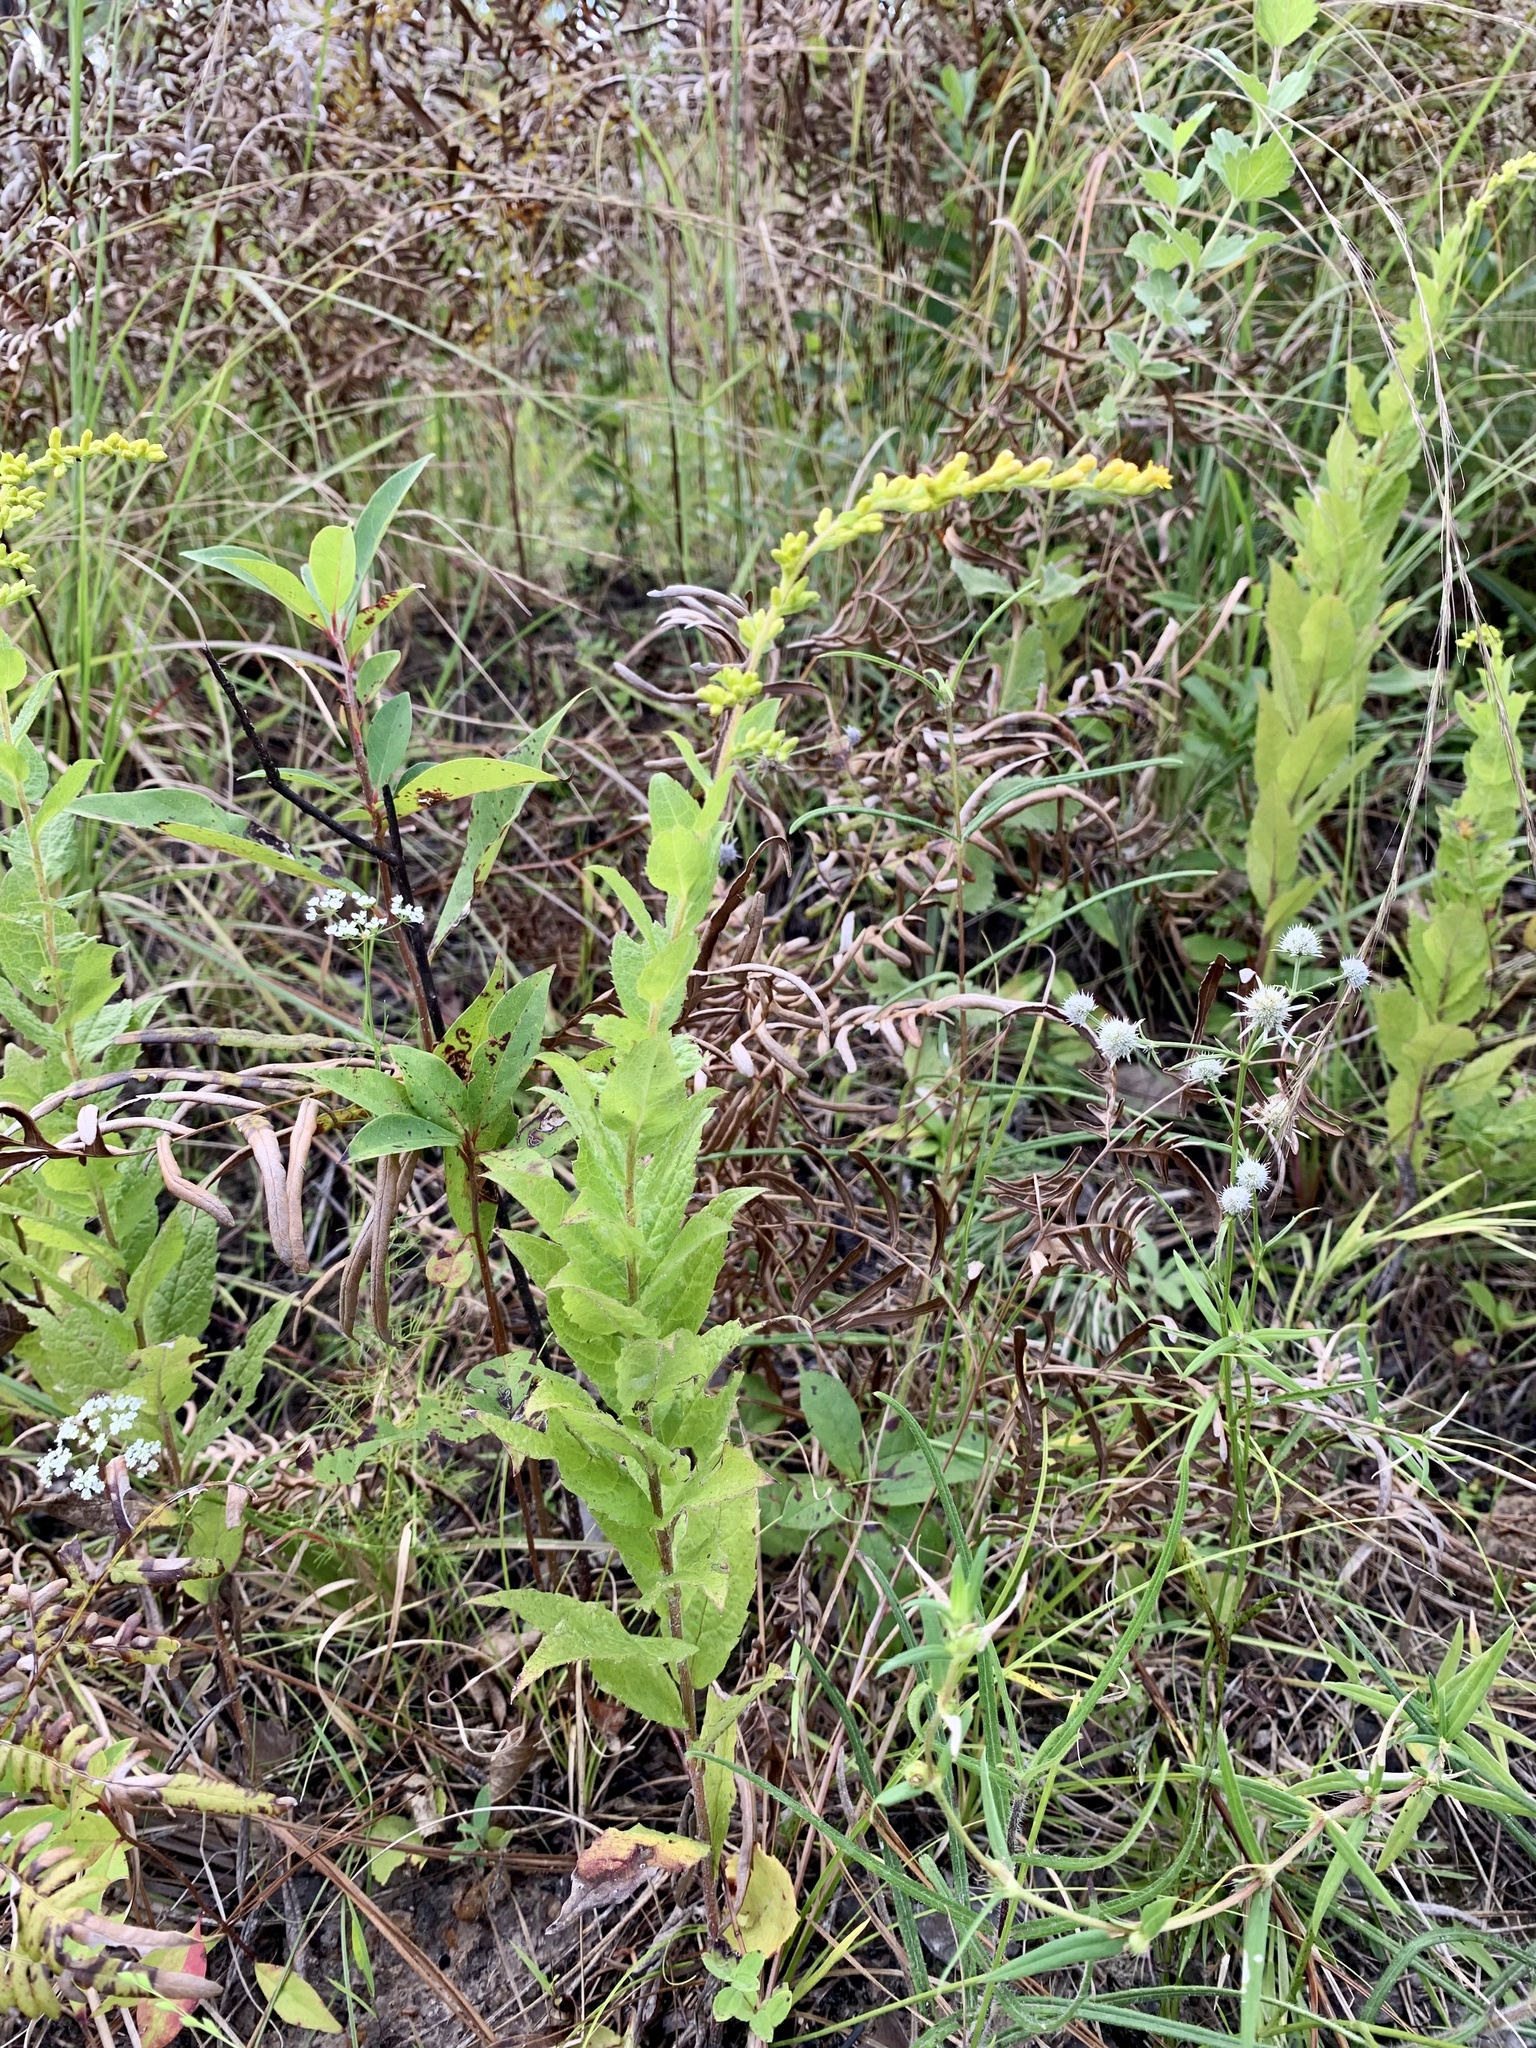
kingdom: Plantae
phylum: Tracheophyta
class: Magnoliopsida
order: Asterales
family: Asteraceae
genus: Solidago
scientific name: Solidago rugosa
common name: Rough-stemmed goldenrod
